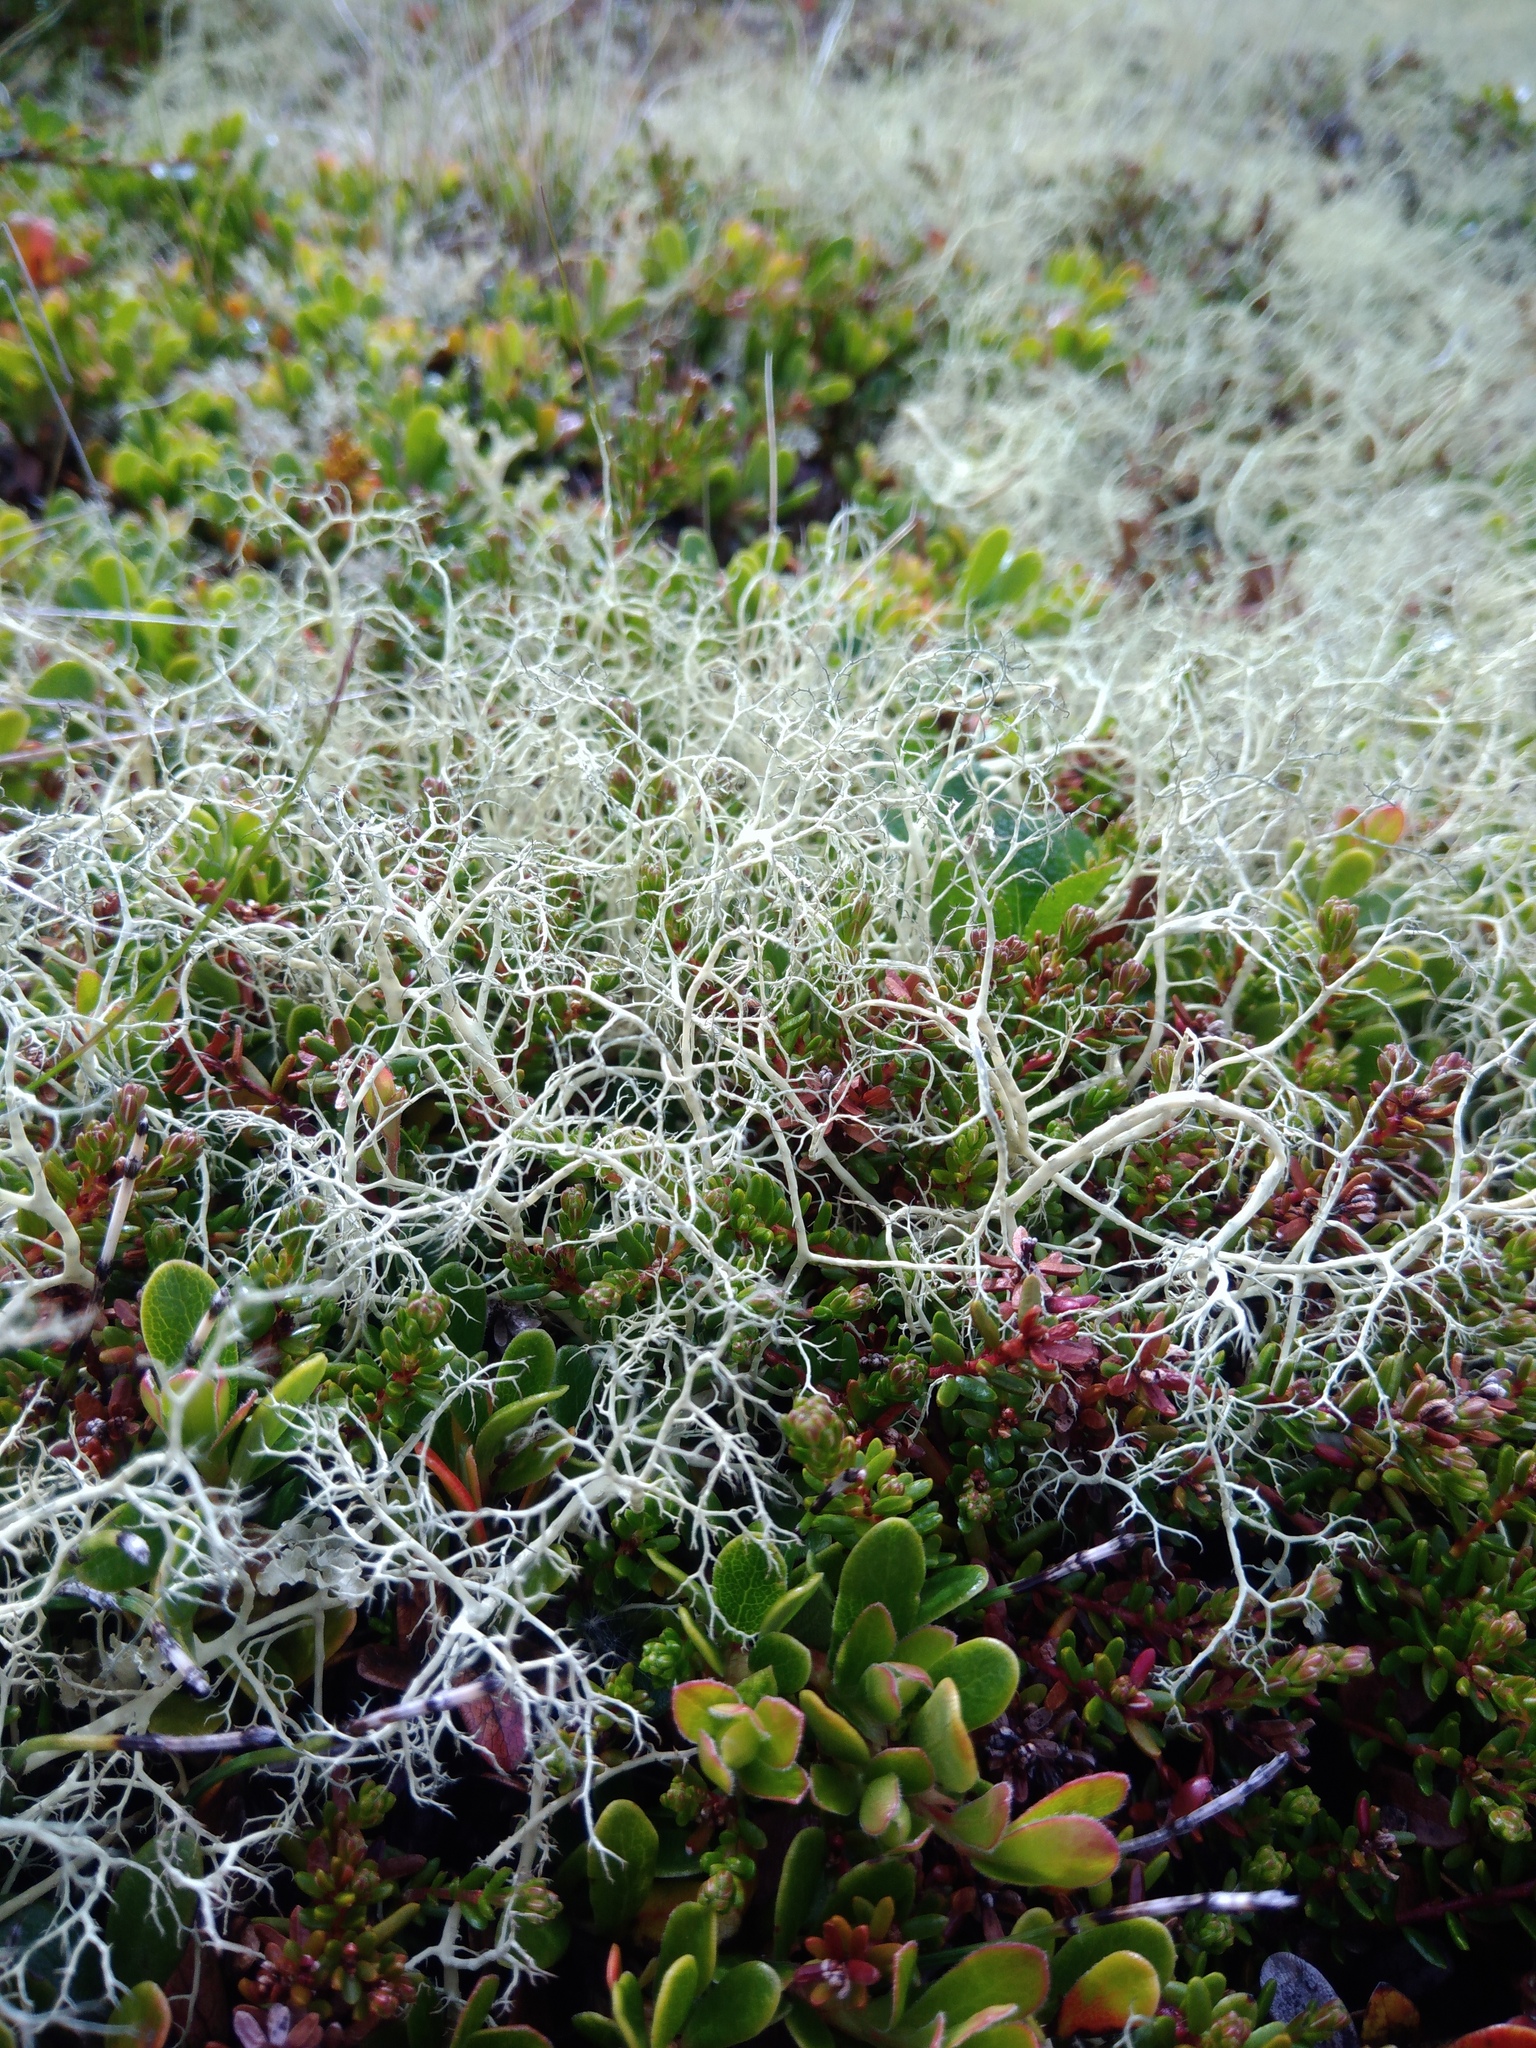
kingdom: Fungi
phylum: Ascomycota
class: Lecanoromycetes
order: Lecanorales
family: Parmeliaceae
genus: Alectoria
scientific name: Alectoria ochroleuca
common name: Alpine sulphur-tresses
